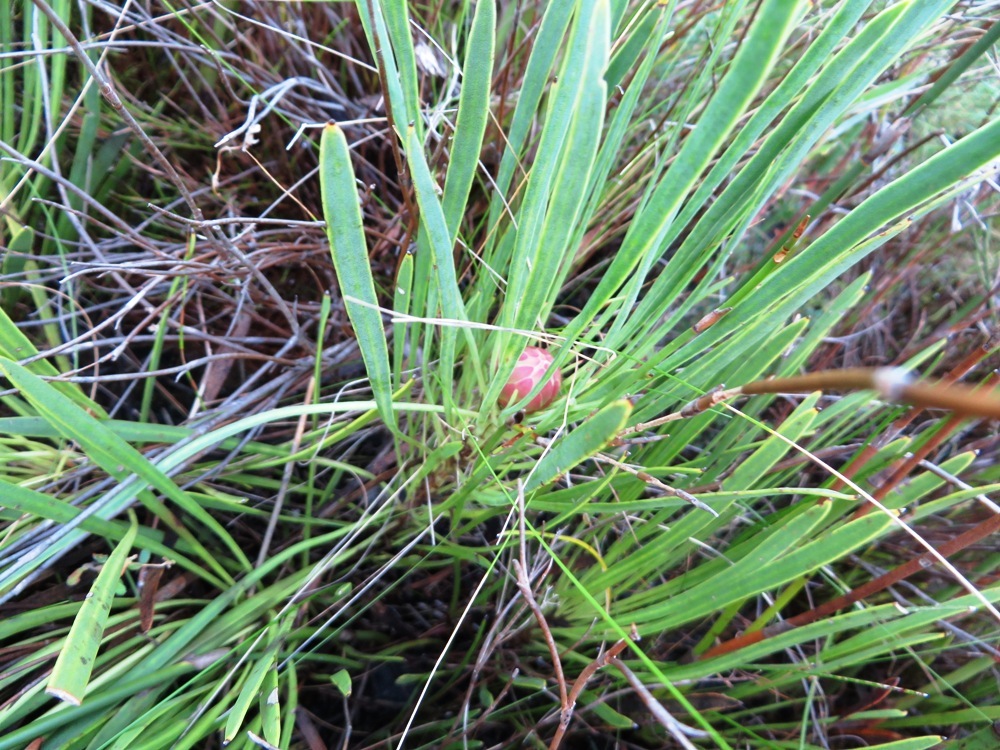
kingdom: Plantae
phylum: Tracheophyta
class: Magnoliopsida
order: Proteales
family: Proteaceae
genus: Protea
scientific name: Protea angustata
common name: Kleinmond sugarbush
